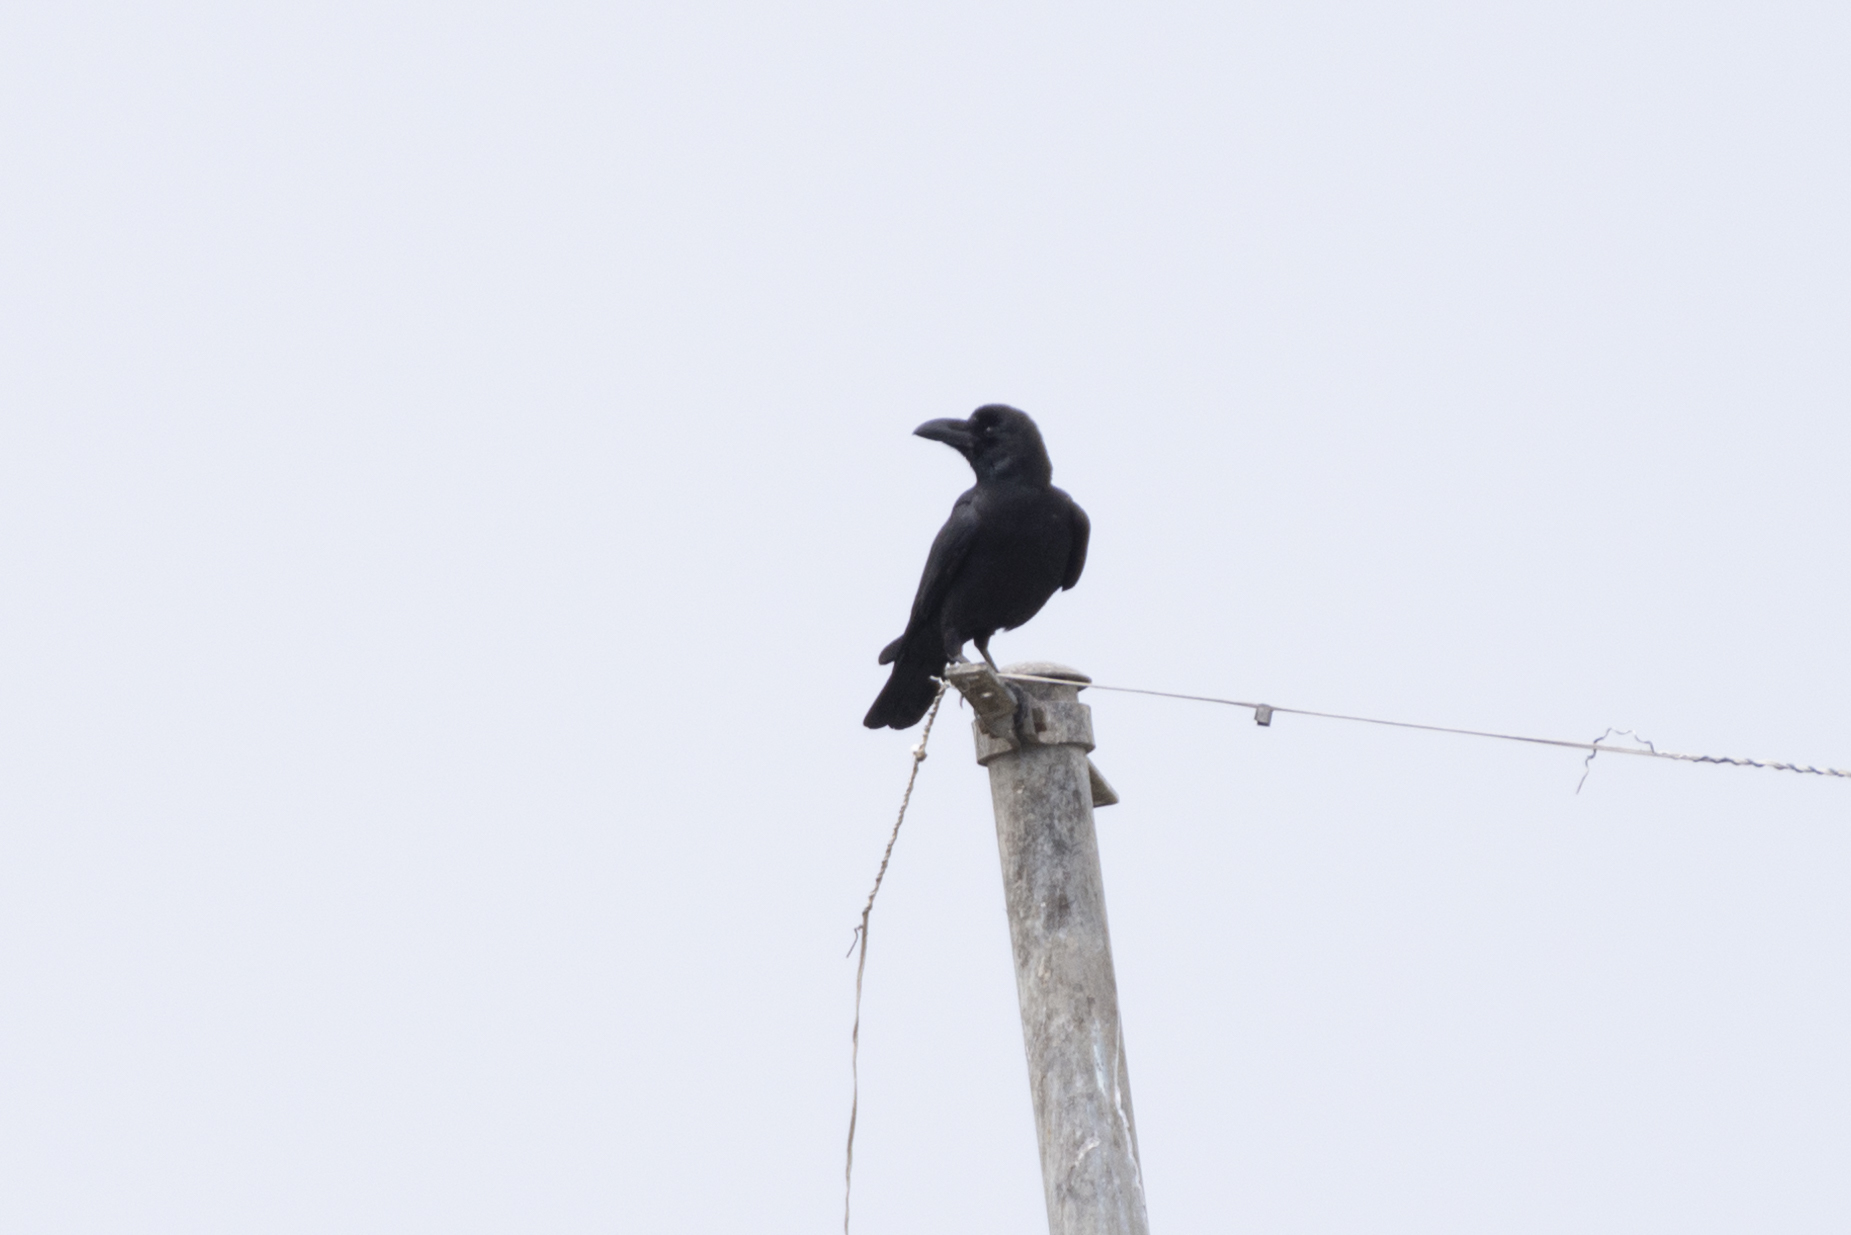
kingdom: Animalia
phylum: Chordata
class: Aves
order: Passeriformes
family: Corvidae
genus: Corvus
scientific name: Corvus macrorhynchos
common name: Large-billed crow
